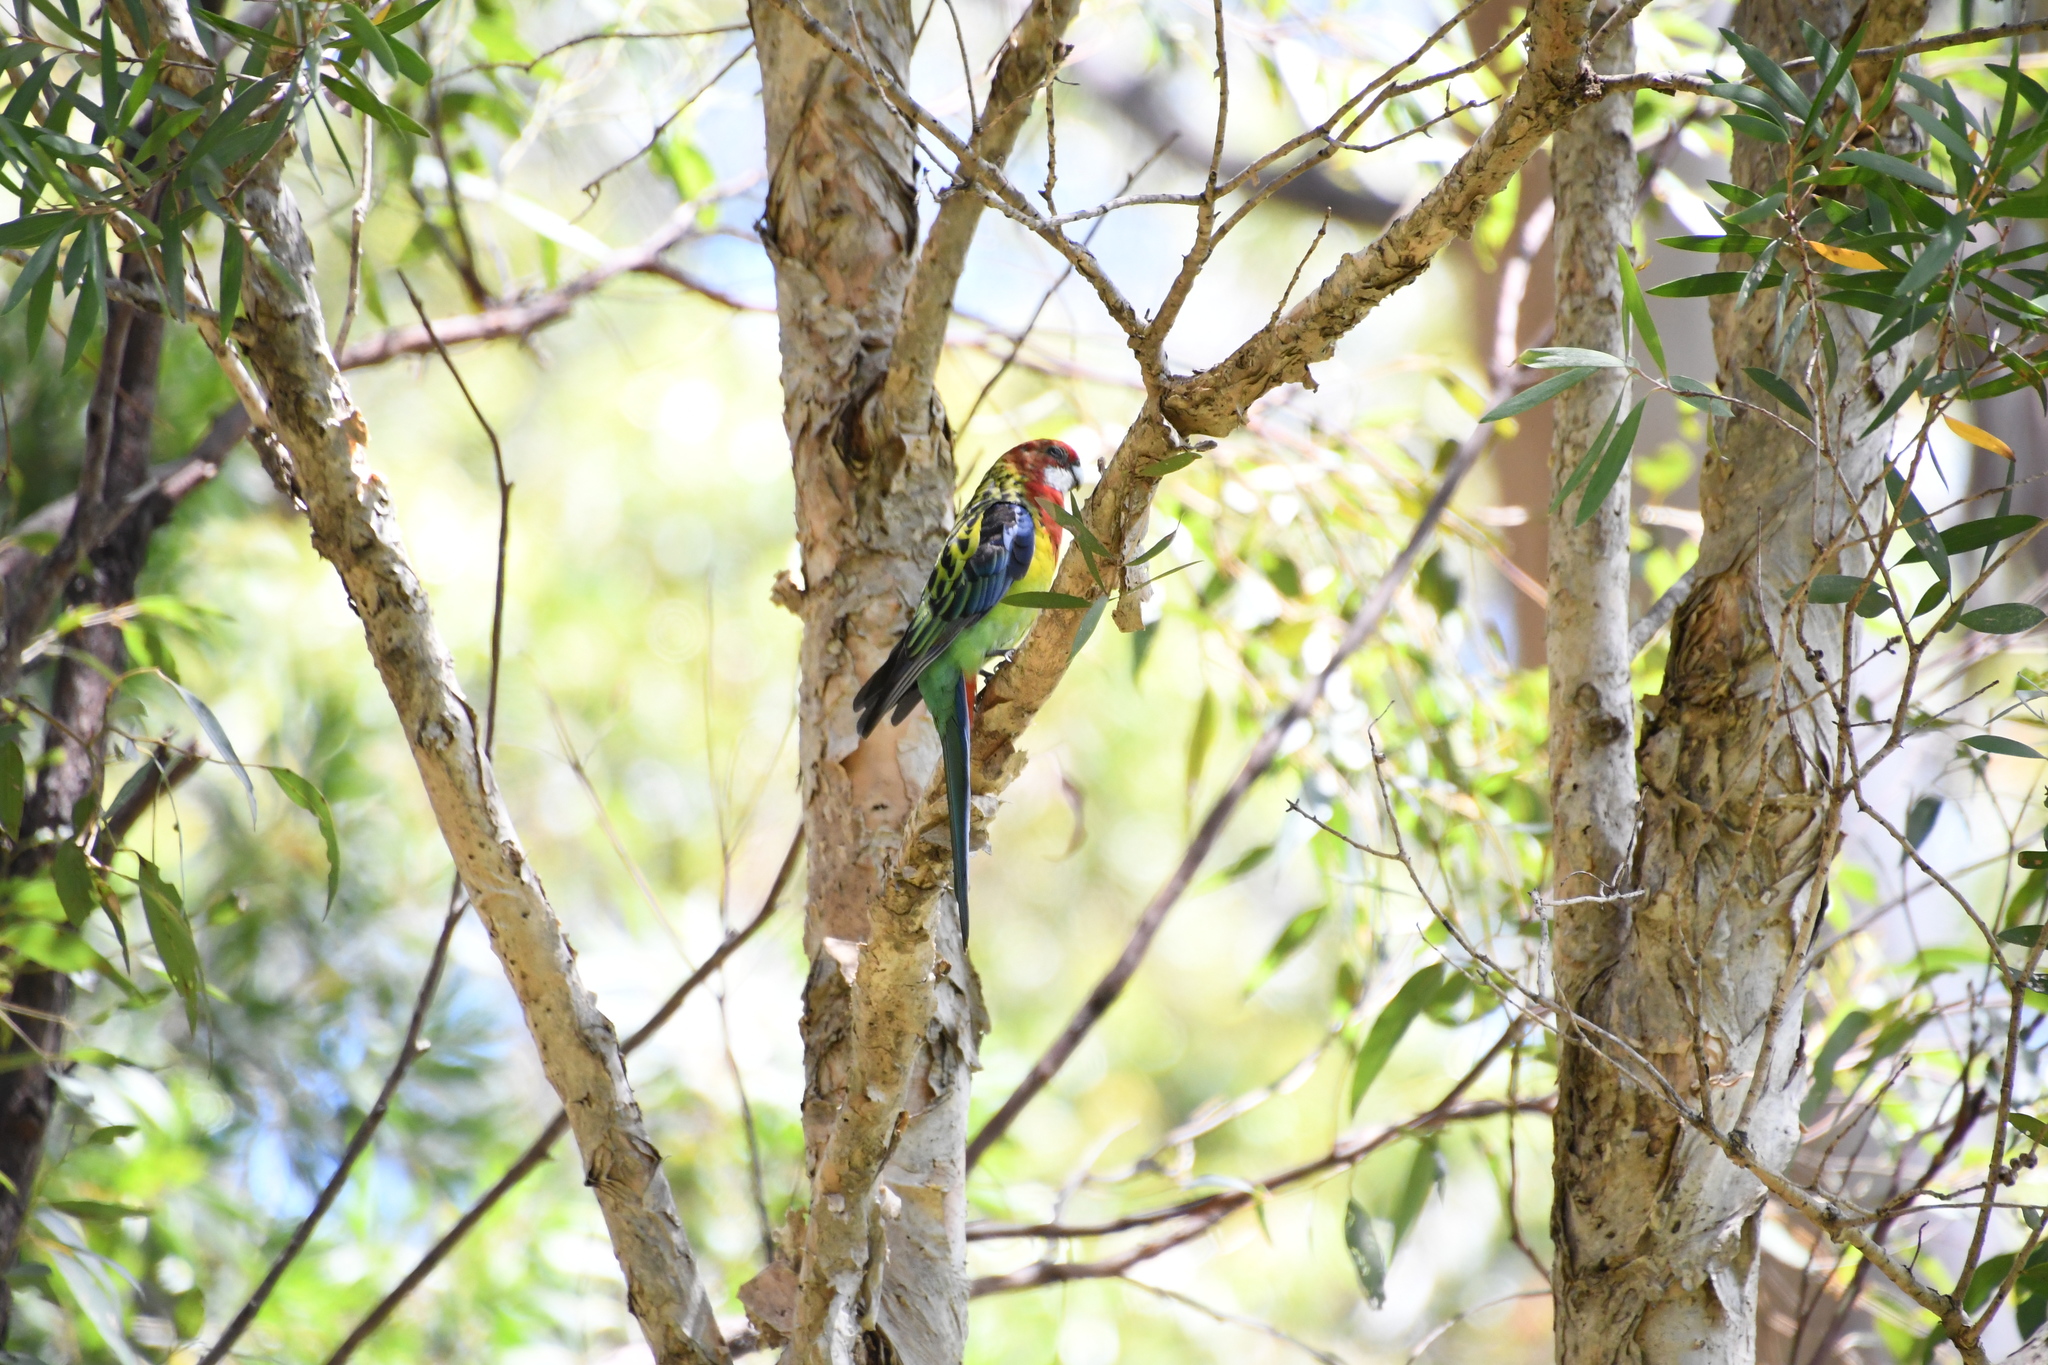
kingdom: Animalia
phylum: Chordata
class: Aves
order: Psittaciformes
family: Psittacidae
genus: Platycercus
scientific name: Platycercus eximius
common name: Eastern rosella
